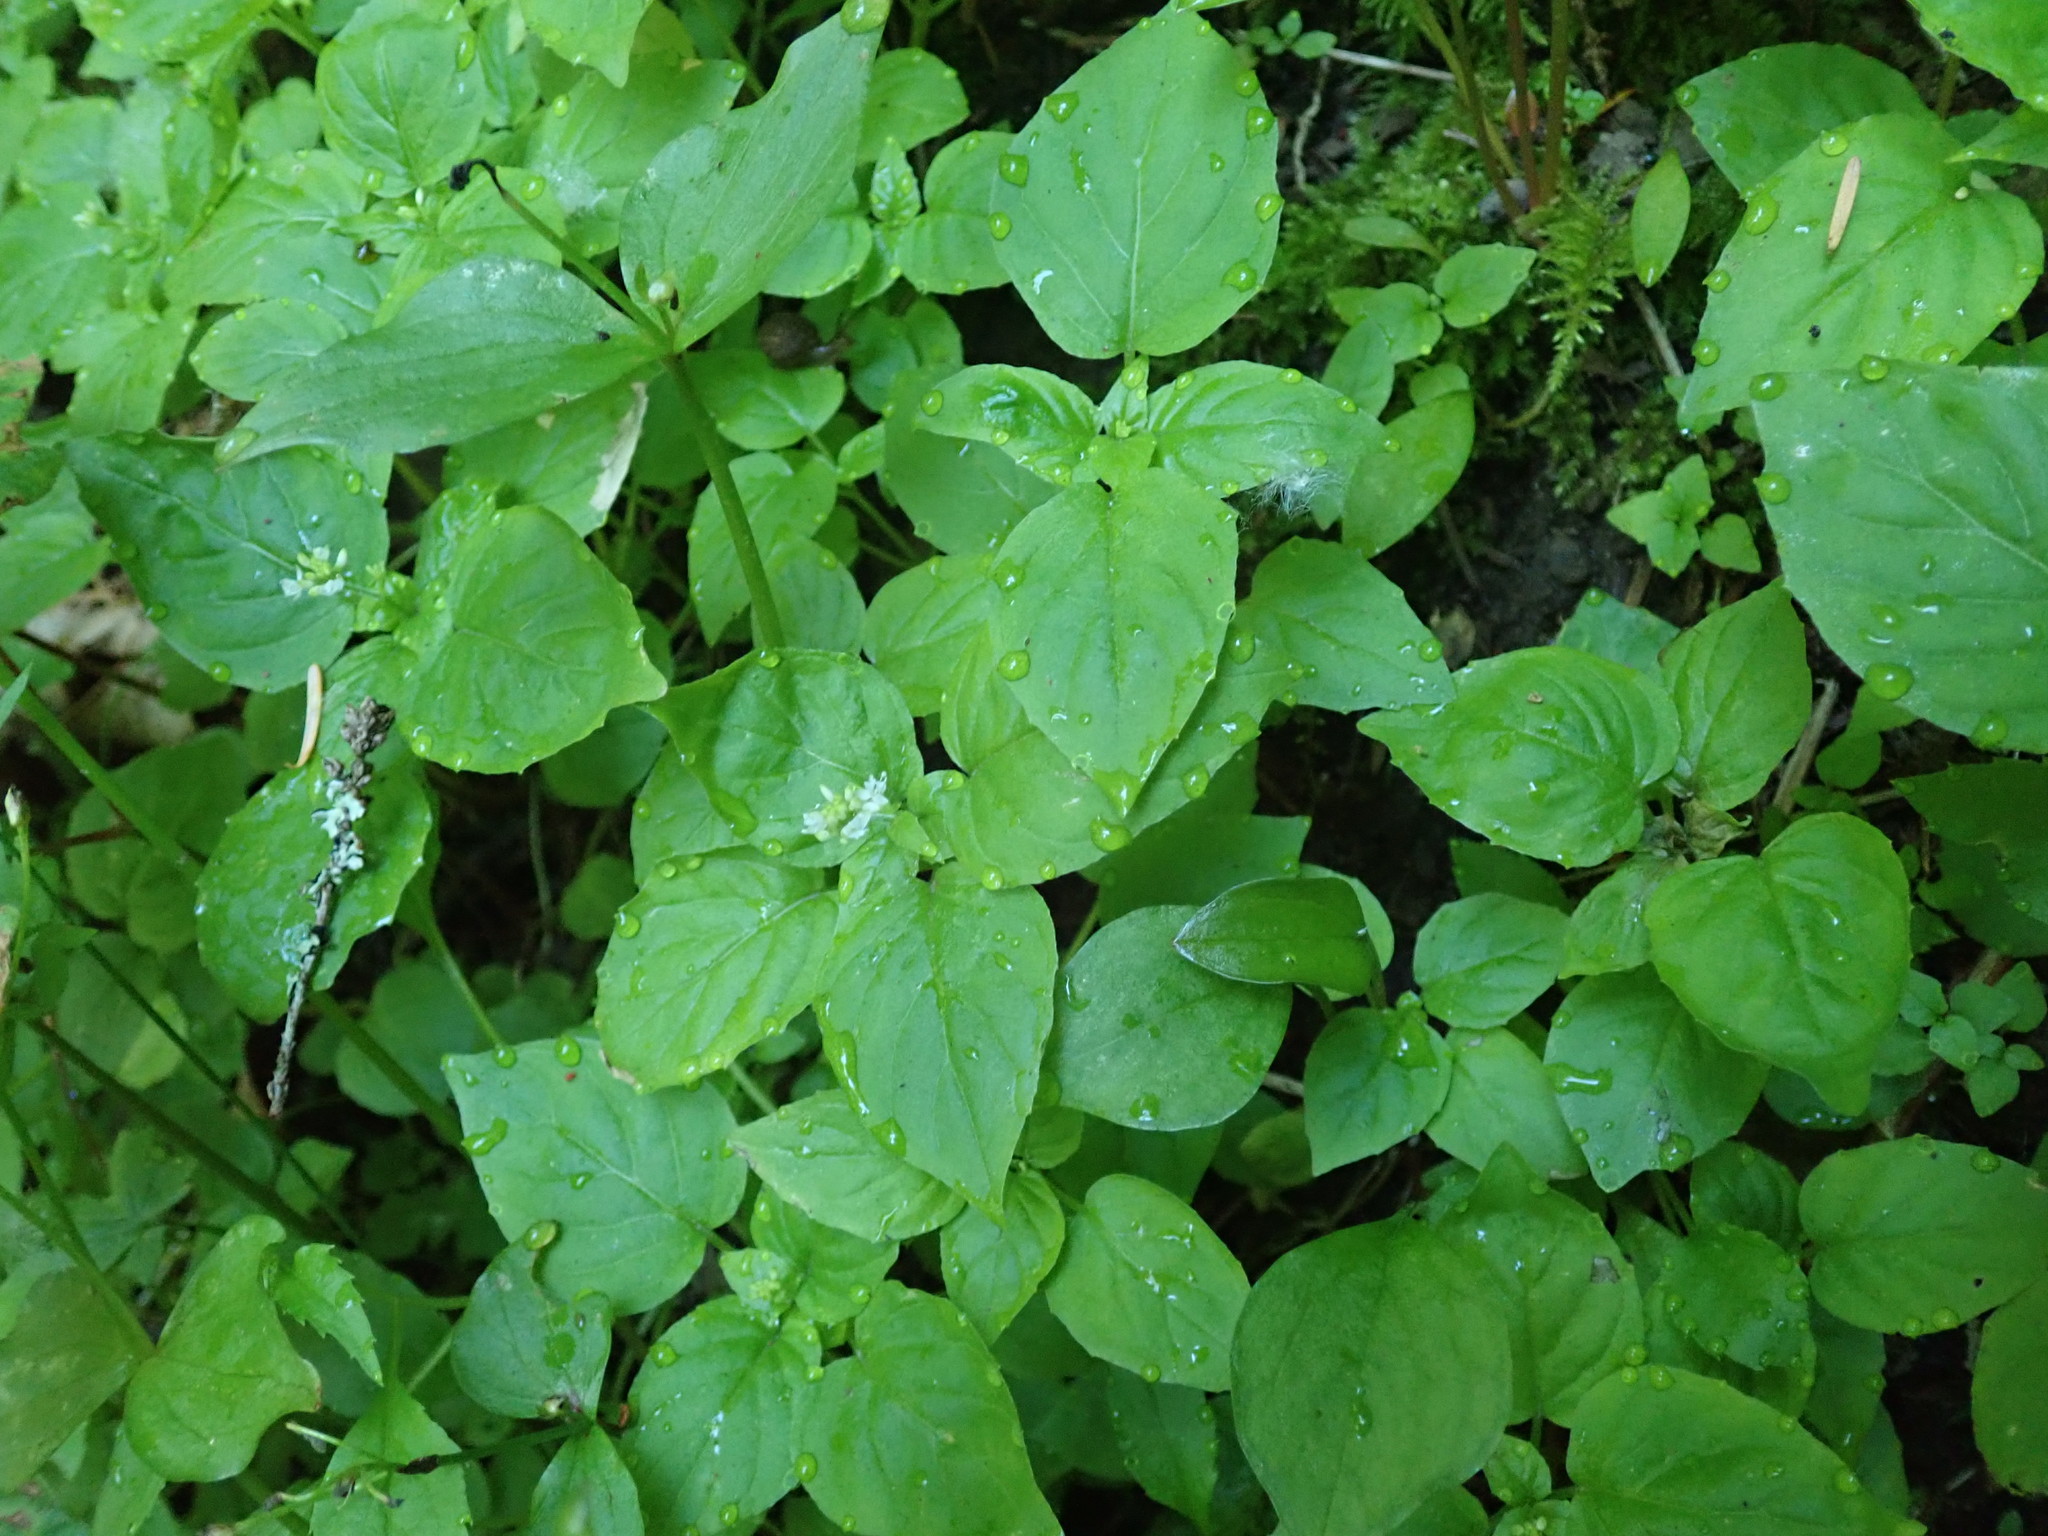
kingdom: Plantae
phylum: Tracheophyta
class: Magnoliopsida
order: Myrtales
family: Onagraceae
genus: Circaea
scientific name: Circaea alpina
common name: Alpine enchanter's-nightshade
